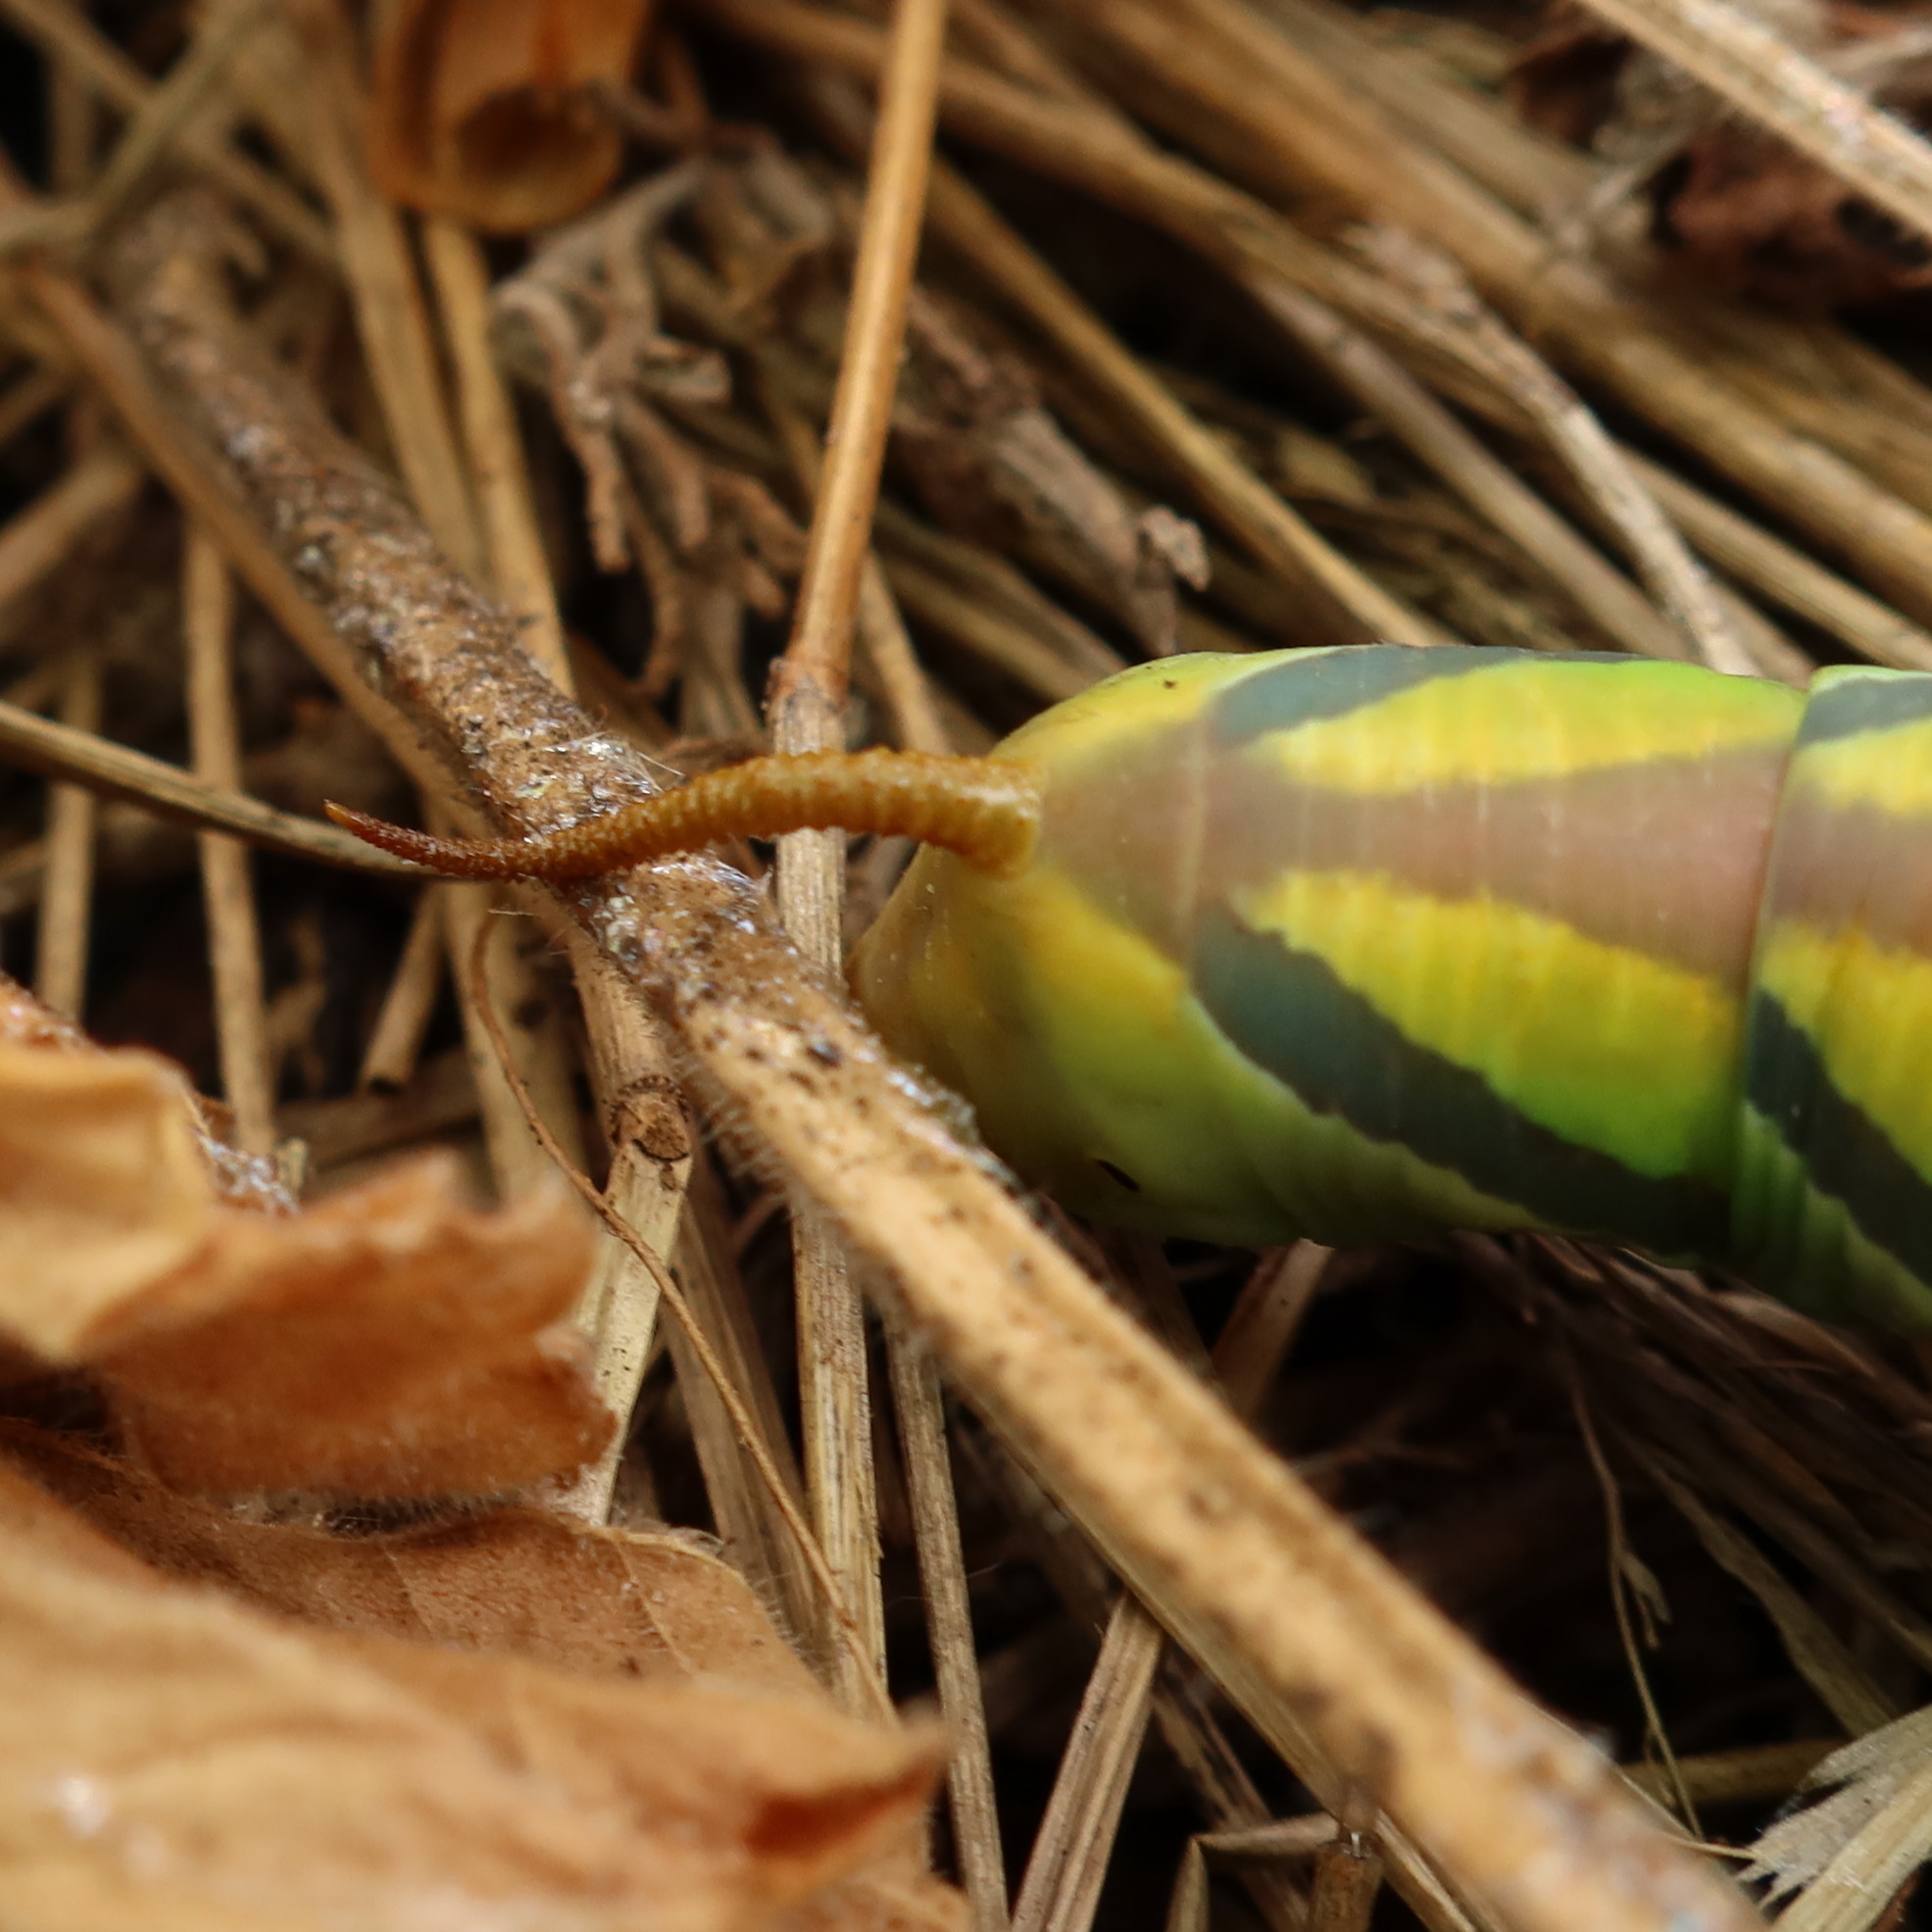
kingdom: Animalia
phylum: Arthropoda
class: Insecta
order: Lepidoptera
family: Sphingidae
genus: Coelonia
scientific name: Coelonia fulvinotata
